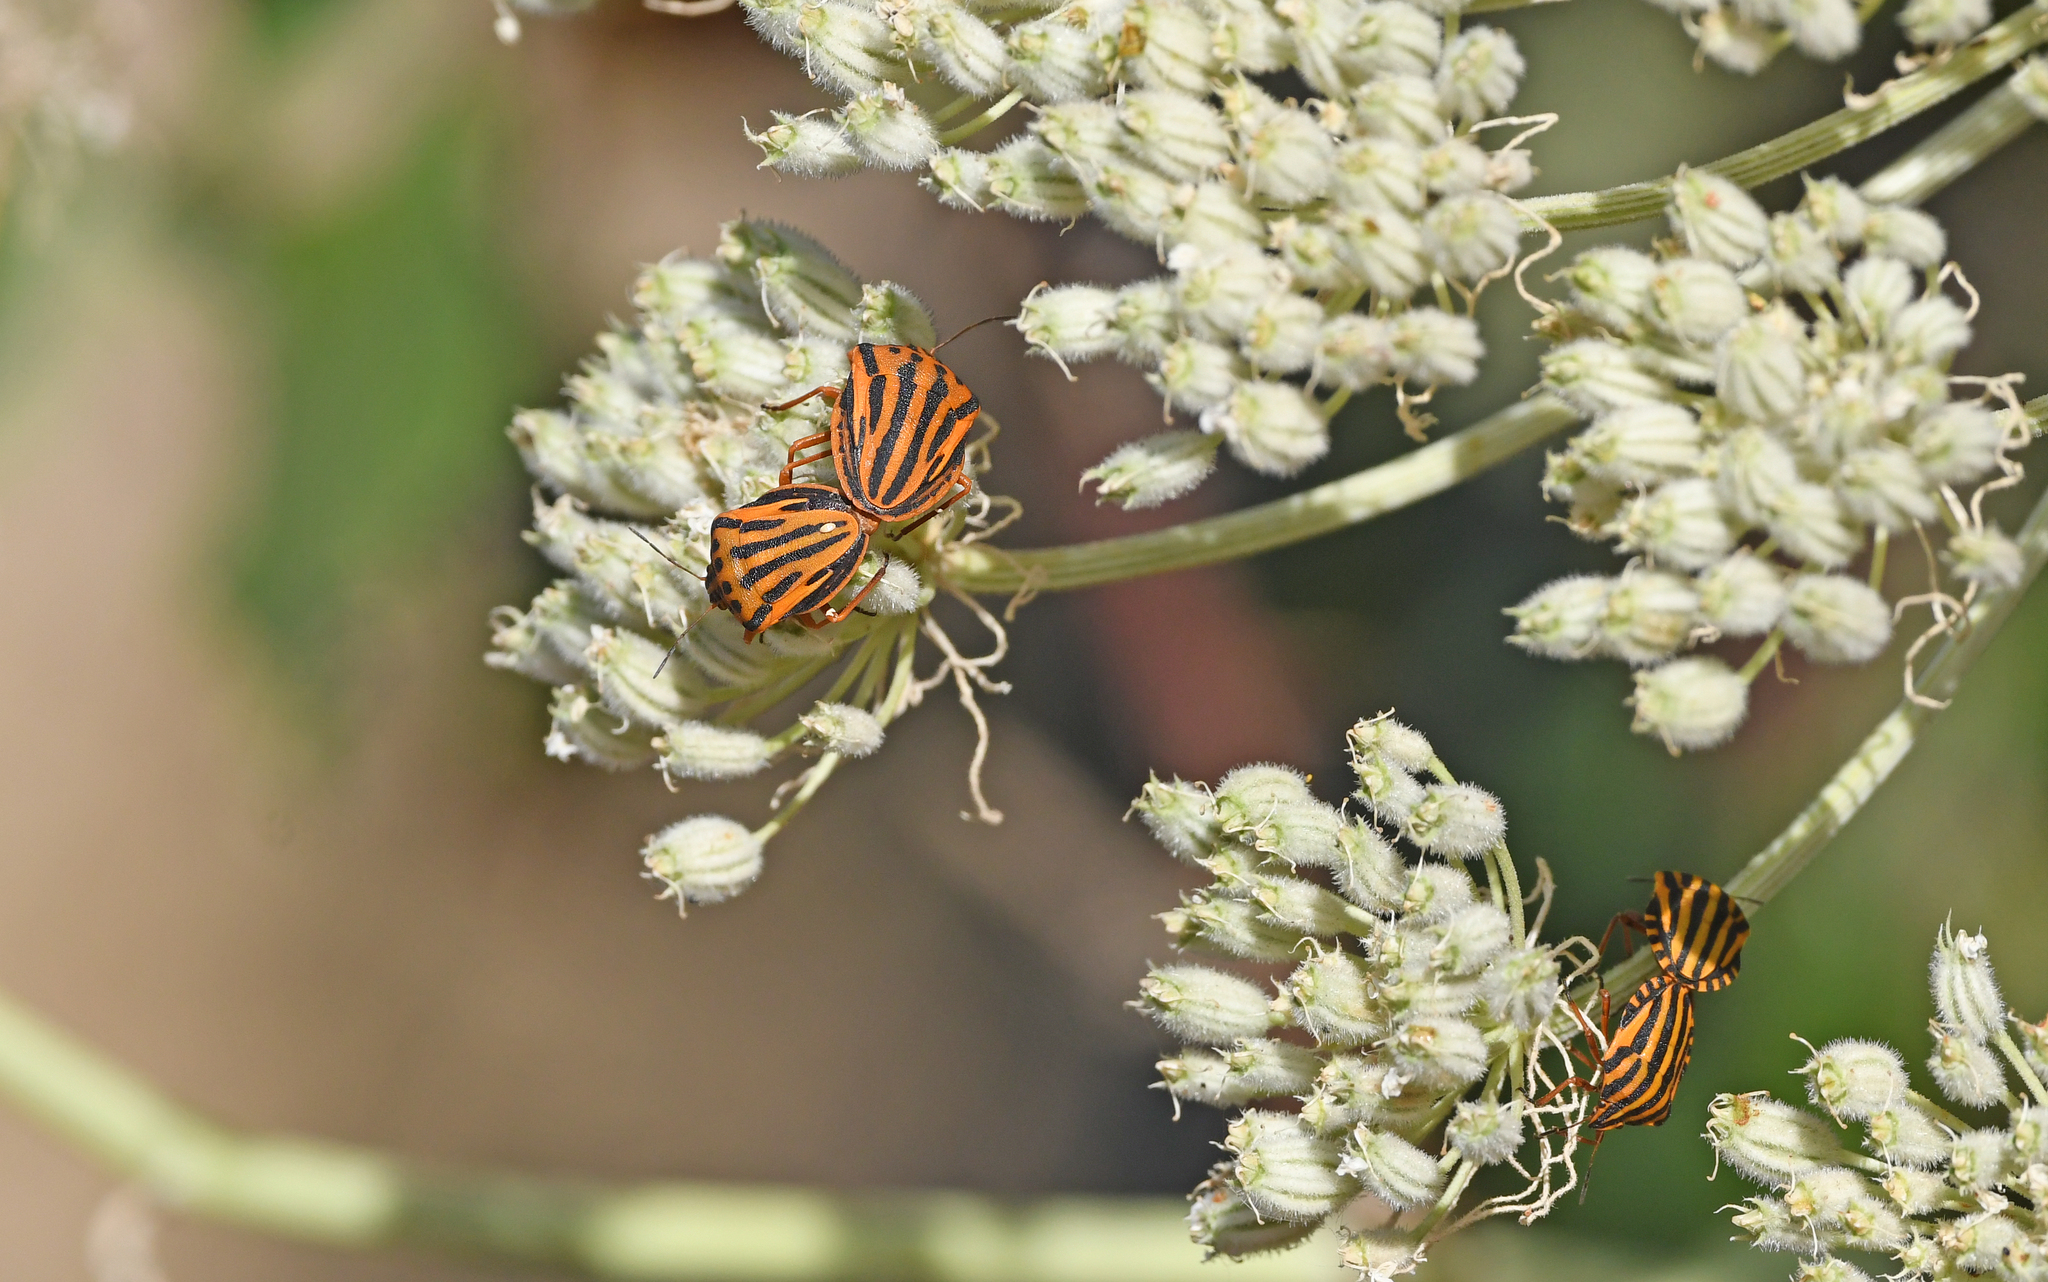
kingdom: Animalia
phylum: Arthropoda
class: Insecta
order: Hemiptera
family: Pentatomidae
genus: Graphosoma
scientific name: Graphosoma semipunctatum
